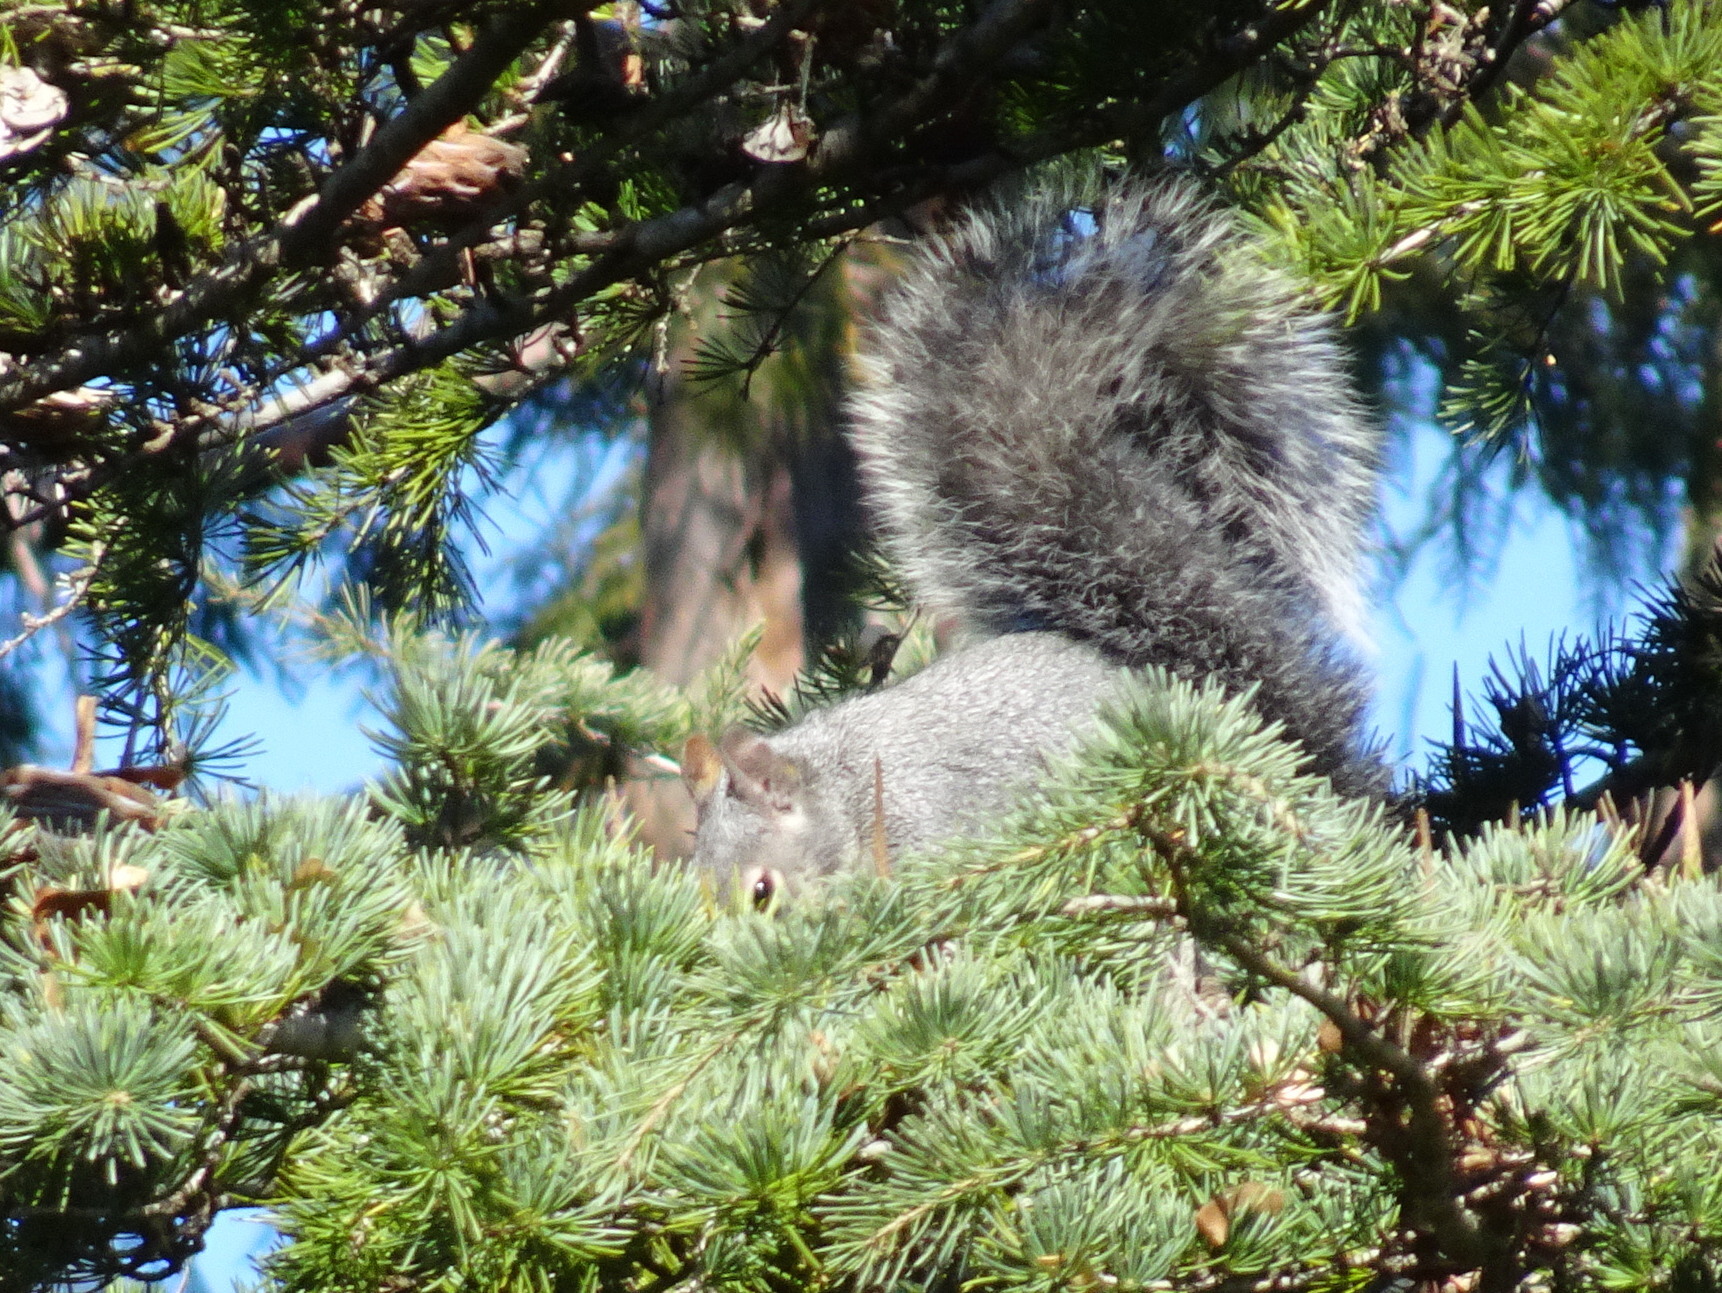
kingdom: Animalia
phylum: Chordata
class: Mammalia
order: Rodentia
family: Sciuridae
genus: Sciurus
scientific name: Sciurus griseus
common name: Western gray squirrel
